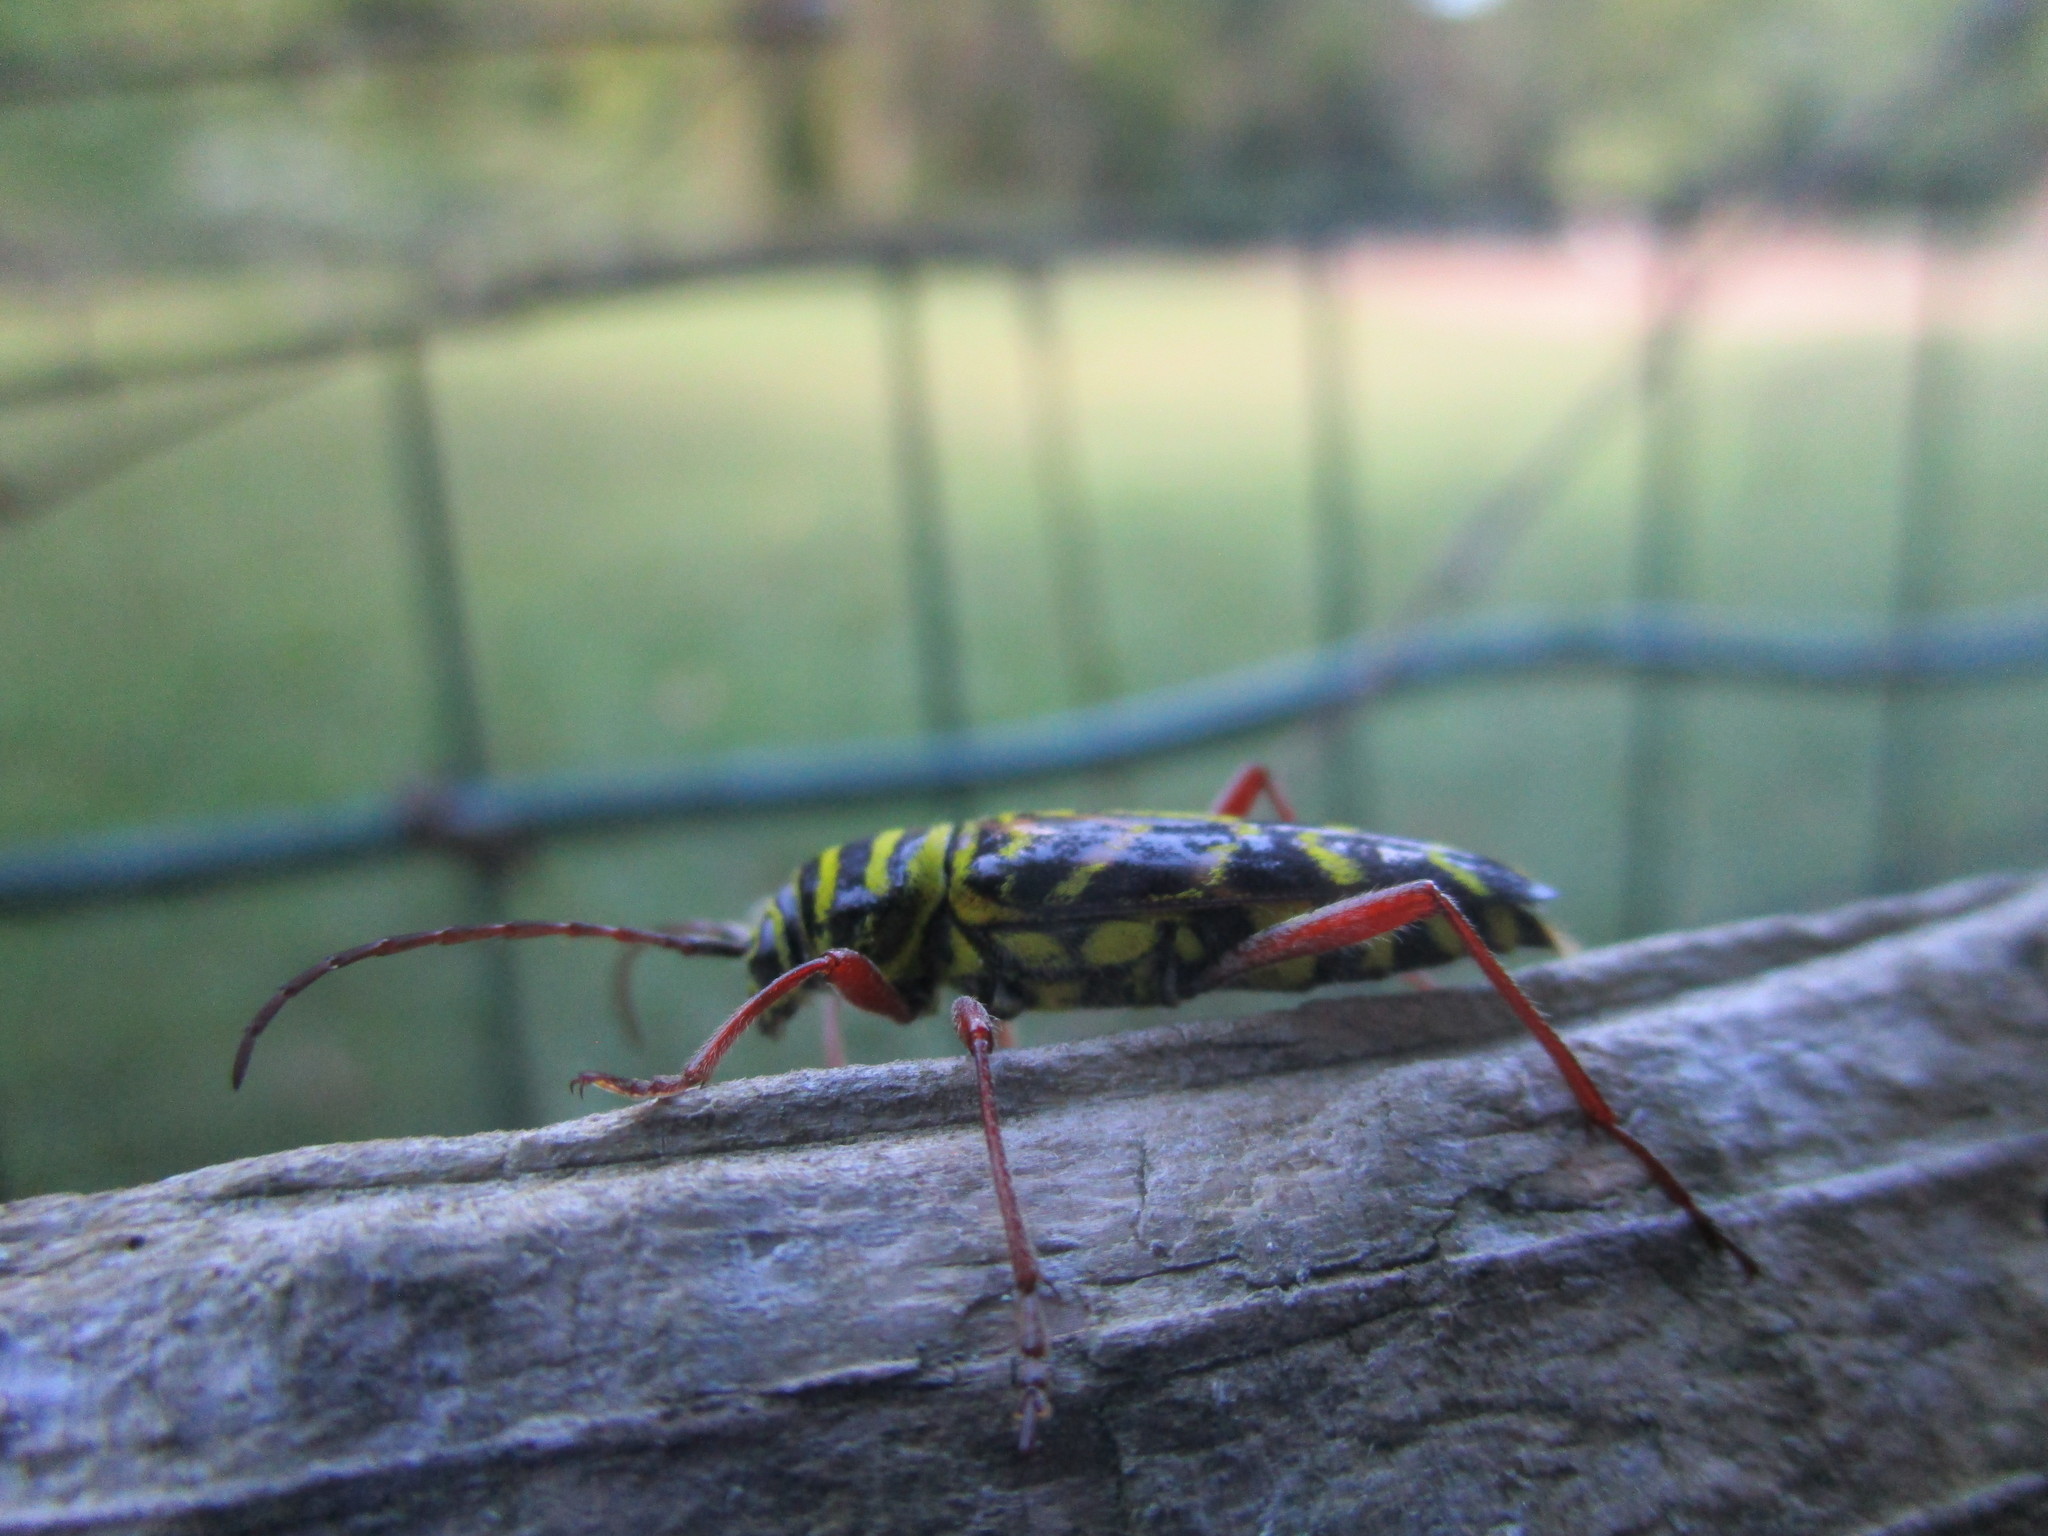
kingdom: Animalia
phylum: Arthropoda
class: Insecta
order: Coleoptera
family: Cerambycidae
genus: Megacyllene
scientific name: Megacyllene robiniae
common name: Locust borer
